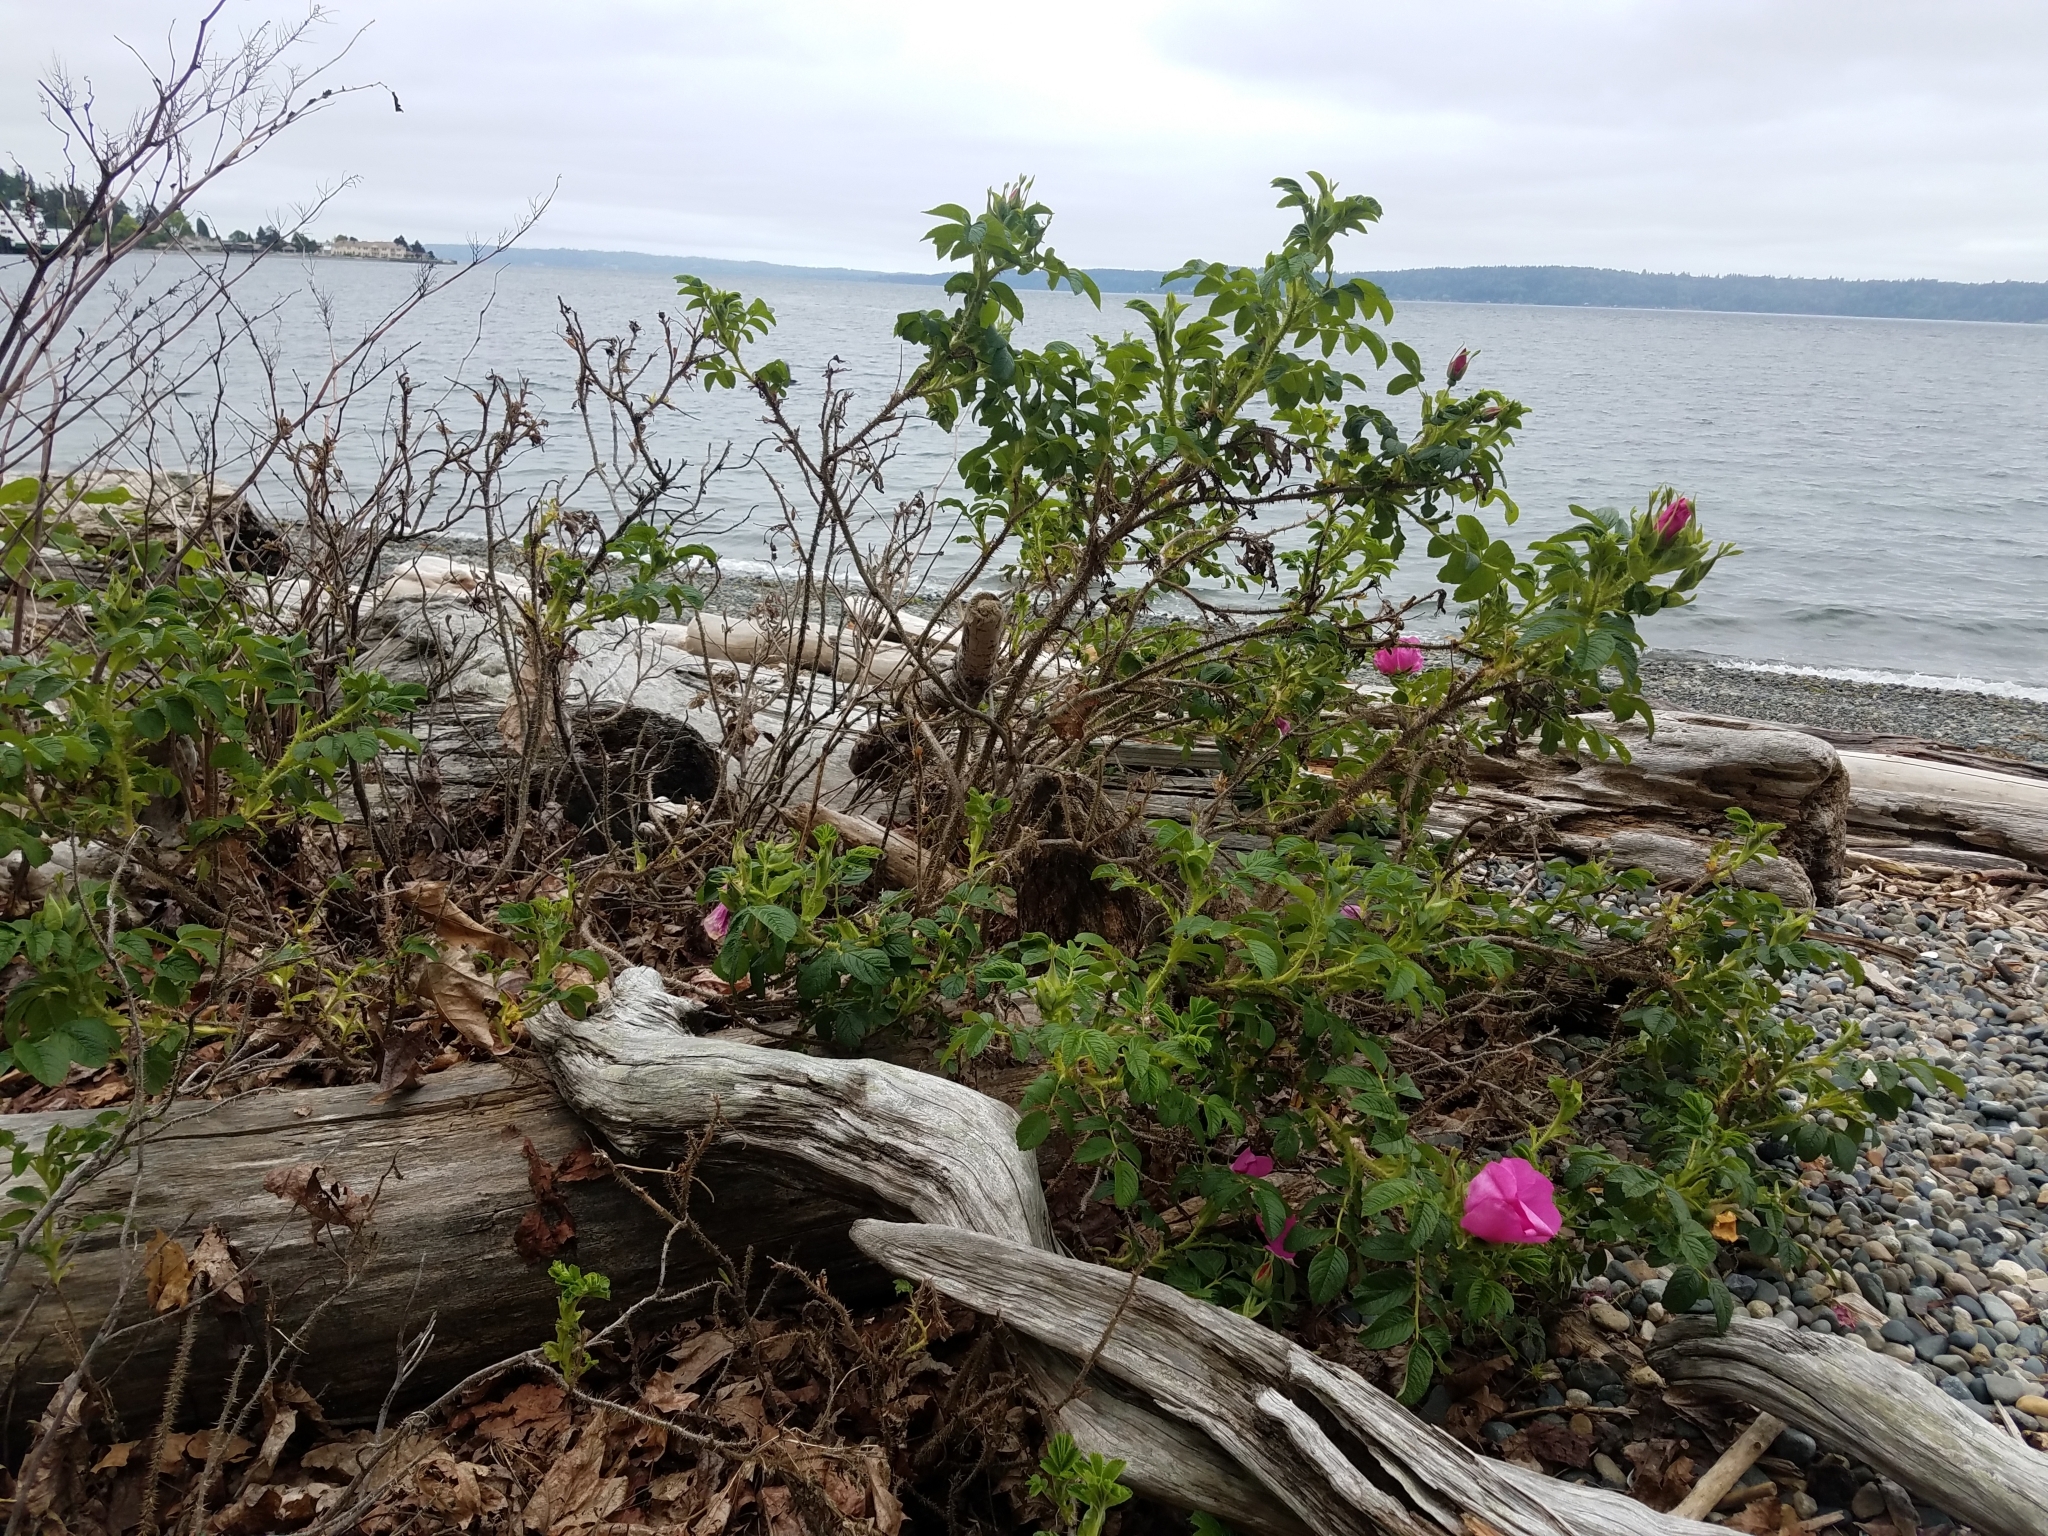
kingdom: Plantae
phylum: Tracheophyta
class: Magnoliopsida
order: Rosales
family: Rosaceae
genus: Rosa
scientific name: Rosa rugosa
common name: Japanese rose
